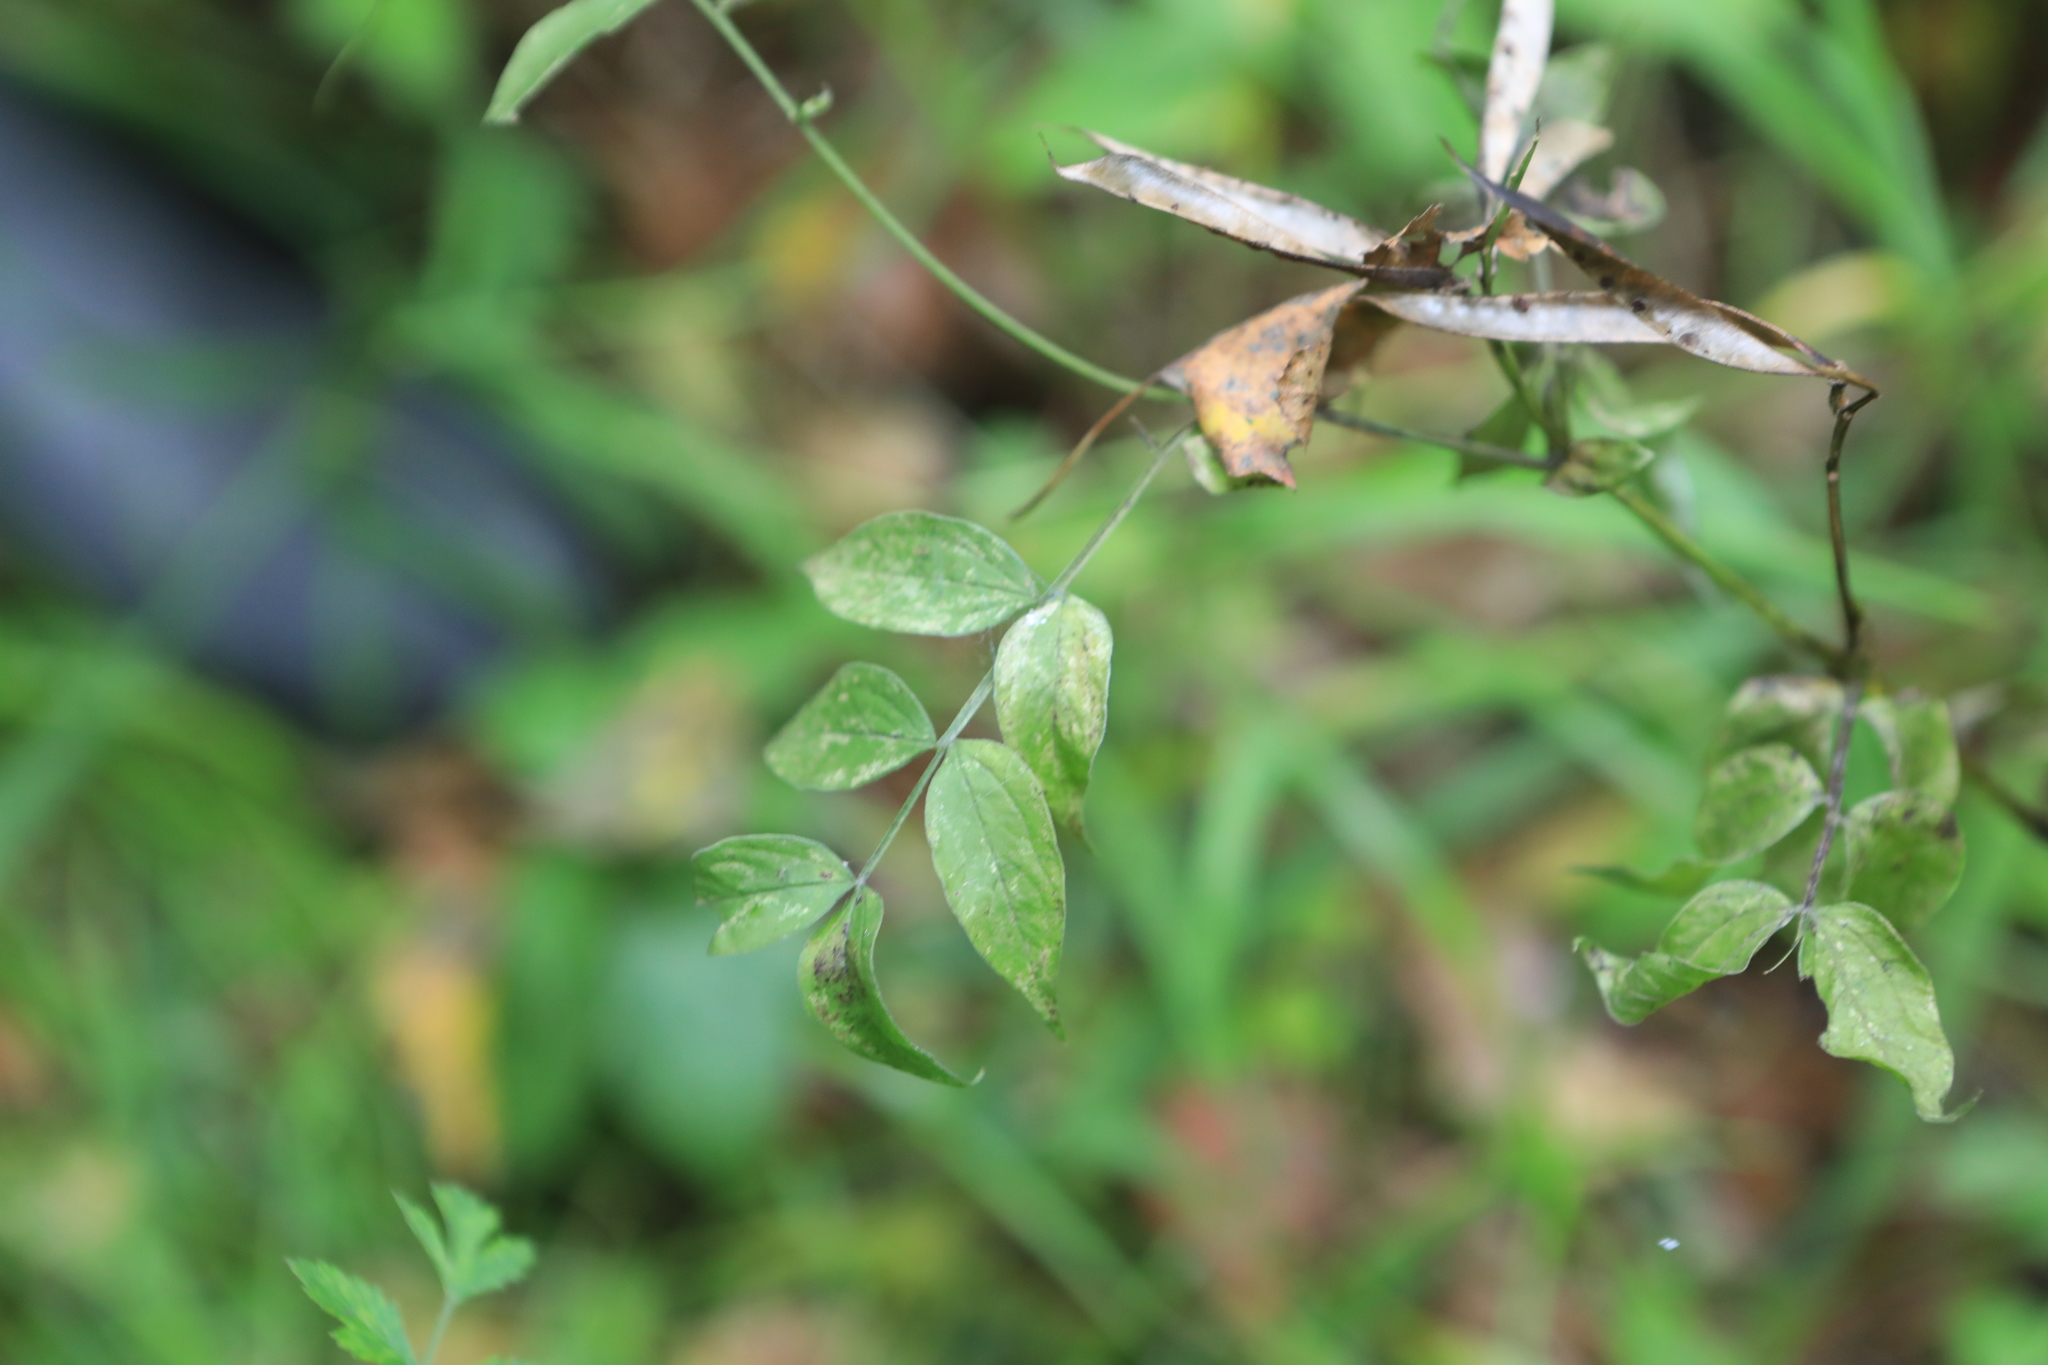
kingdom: Plantae
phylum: Tracheophyta
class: Magnoliopsida
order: Fabales
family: Fabaceae
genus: Lathyrus
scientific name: Lathyrus vernus
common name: Spring pea
